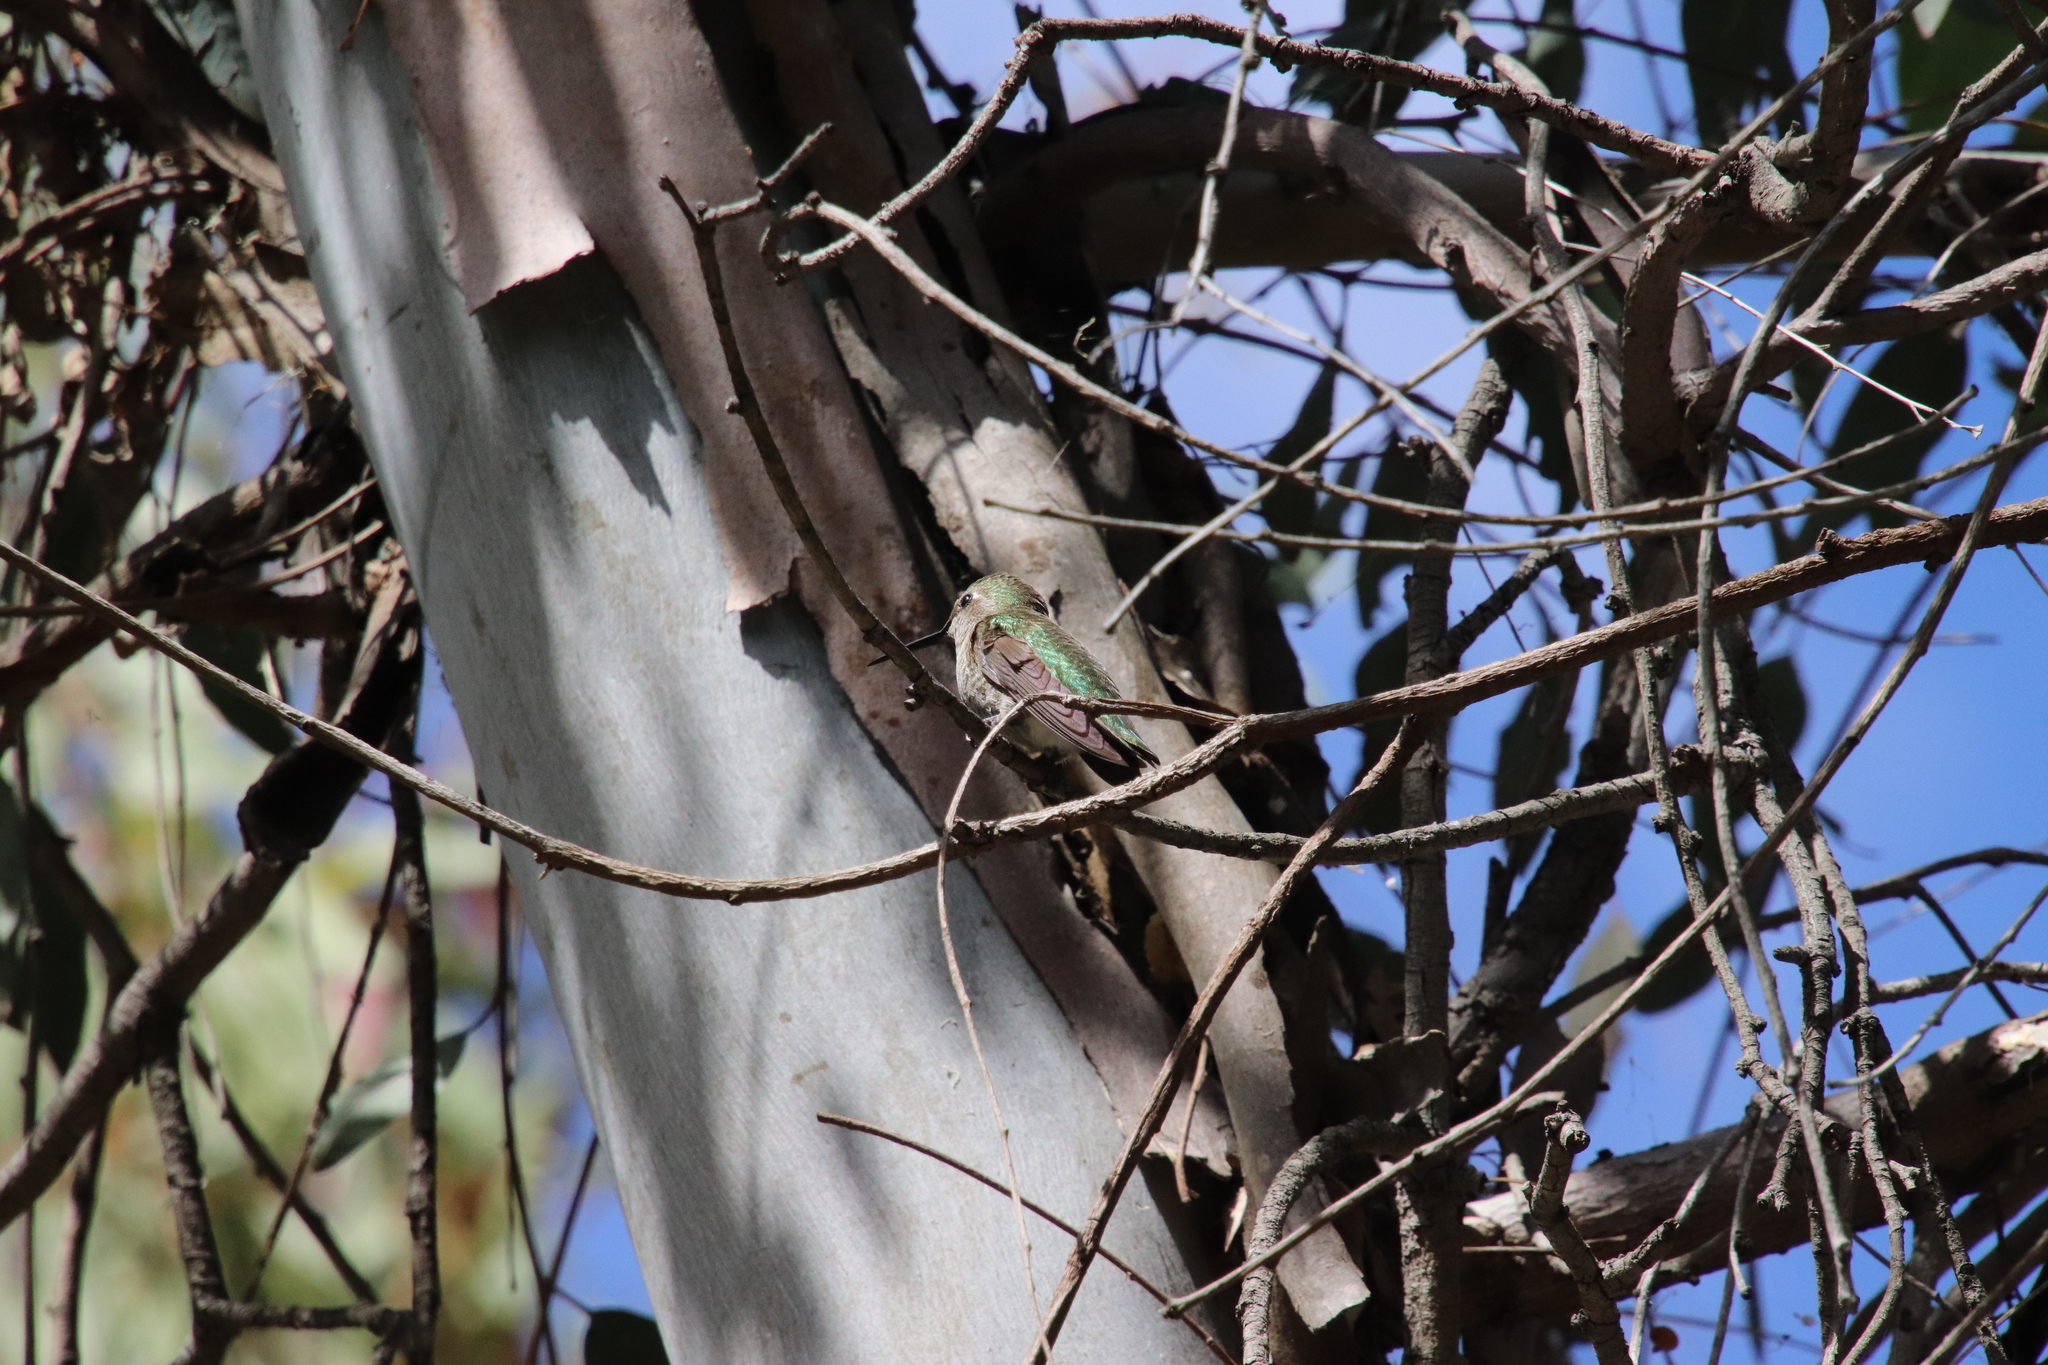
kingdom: Animalia
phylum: Chordata
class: Aves
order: Apodiformes
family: Trochilidae
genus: Calypte
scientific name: Calypte anna
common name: Anna's hummingbird
